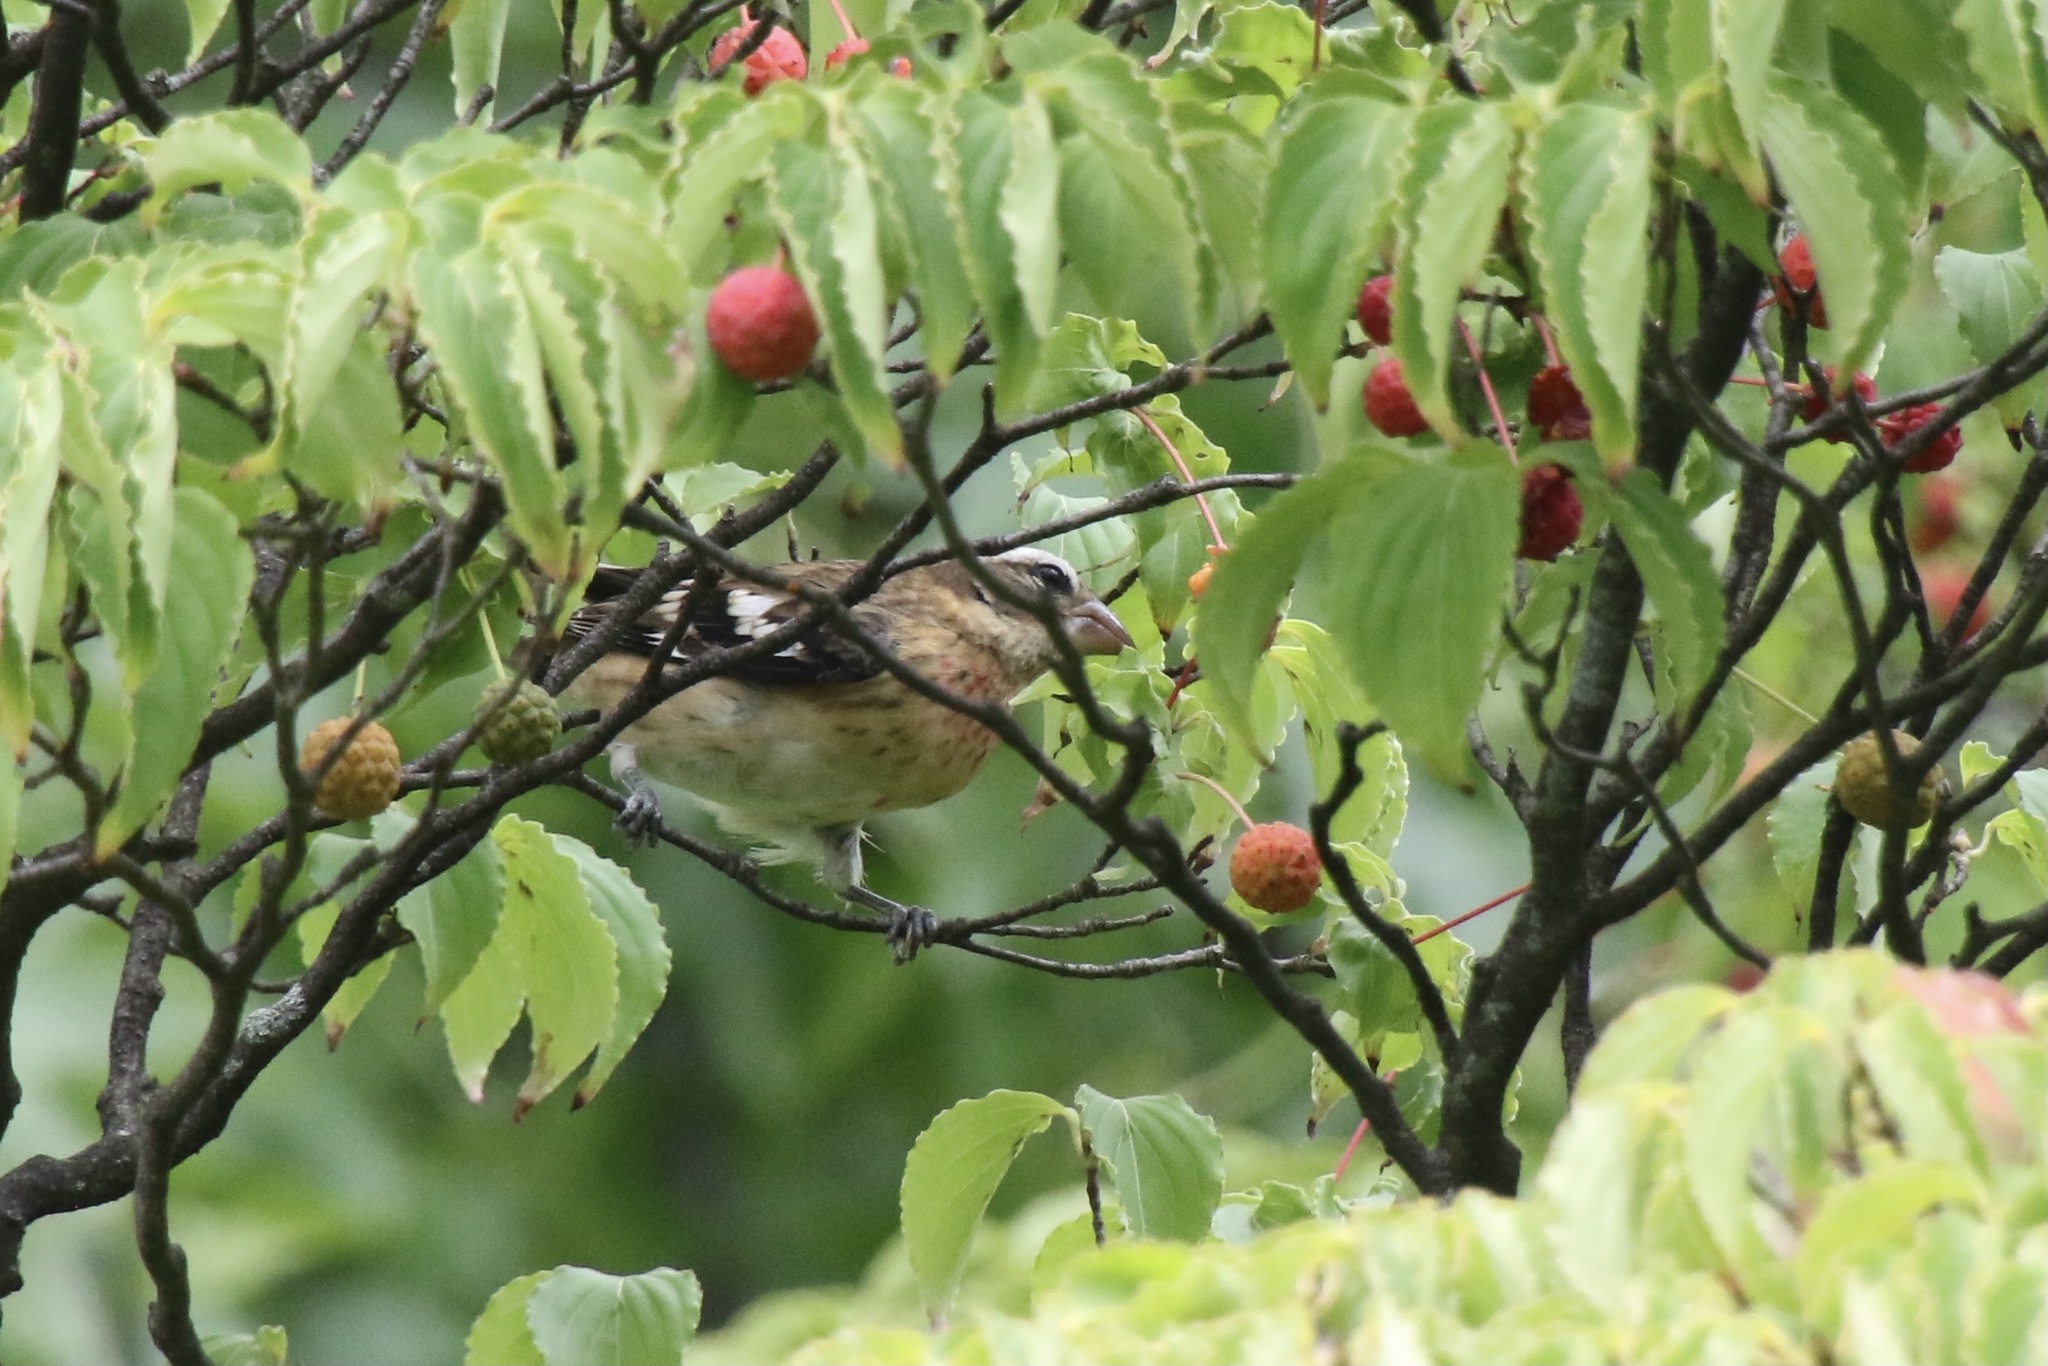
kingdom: Animalia
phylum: Chordata
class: Aves
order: Passeriformes
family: Cardinalidae
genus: Pheucticus
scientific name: Pheucticus ludovicianus
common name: Rose-breasted grosbeak
